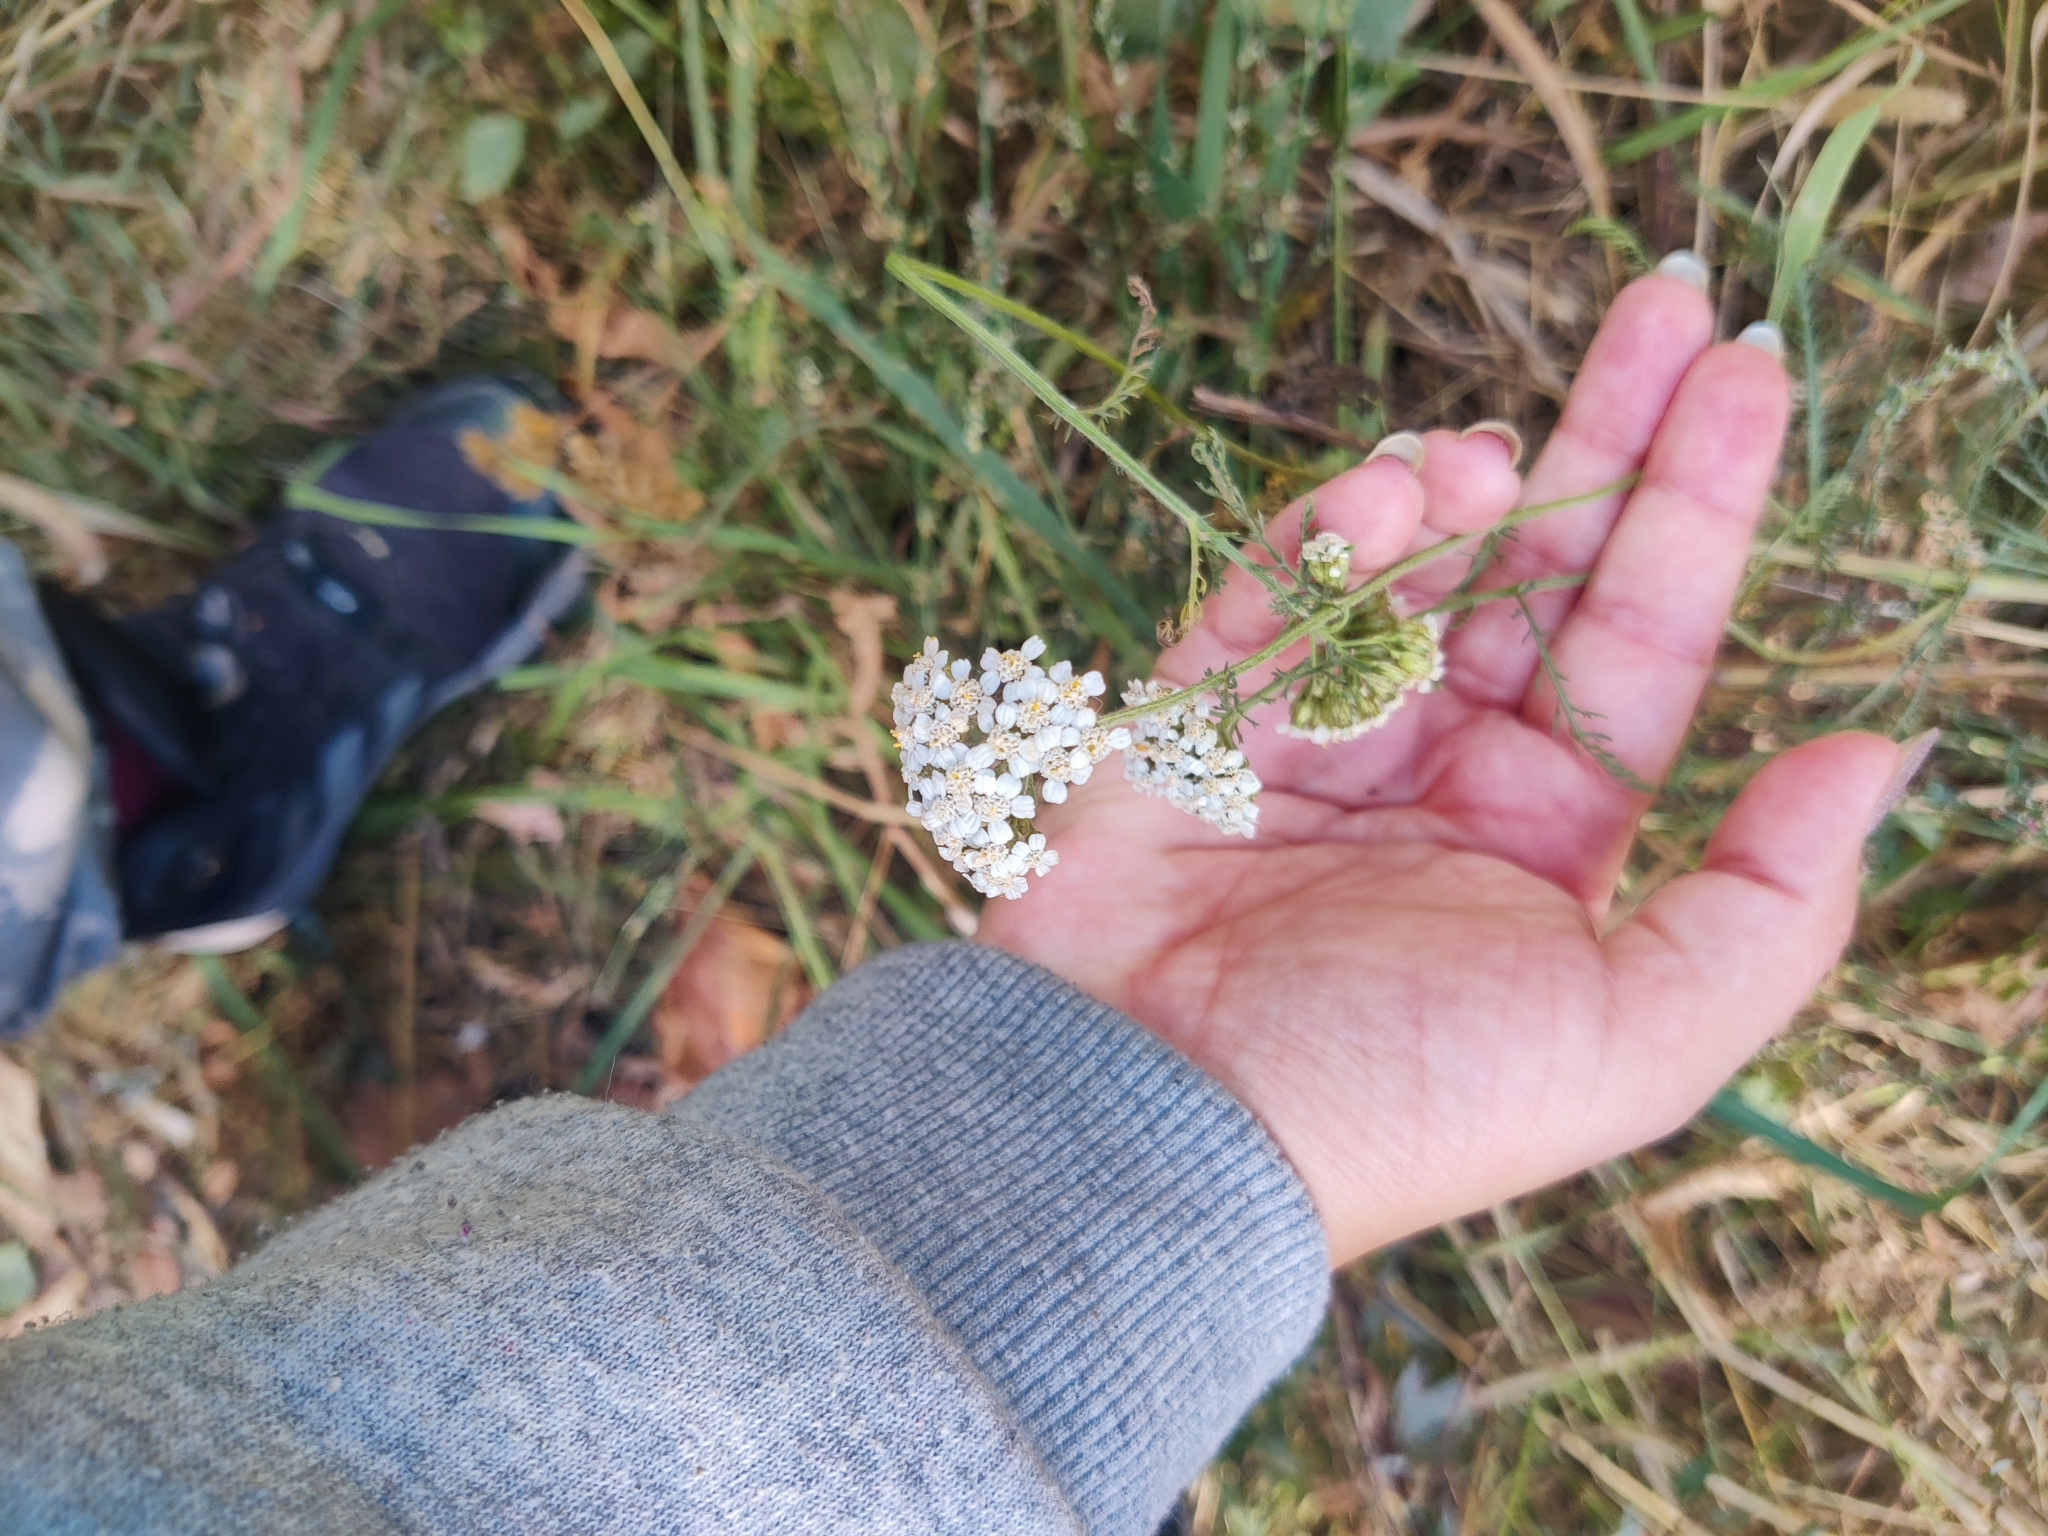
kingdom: Plantae
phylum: Tracheophyta
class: Magnoliopsida
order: Asterales
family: Asteraceae
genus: Achillea
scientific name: Achillea millefolium
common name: Yarrow
